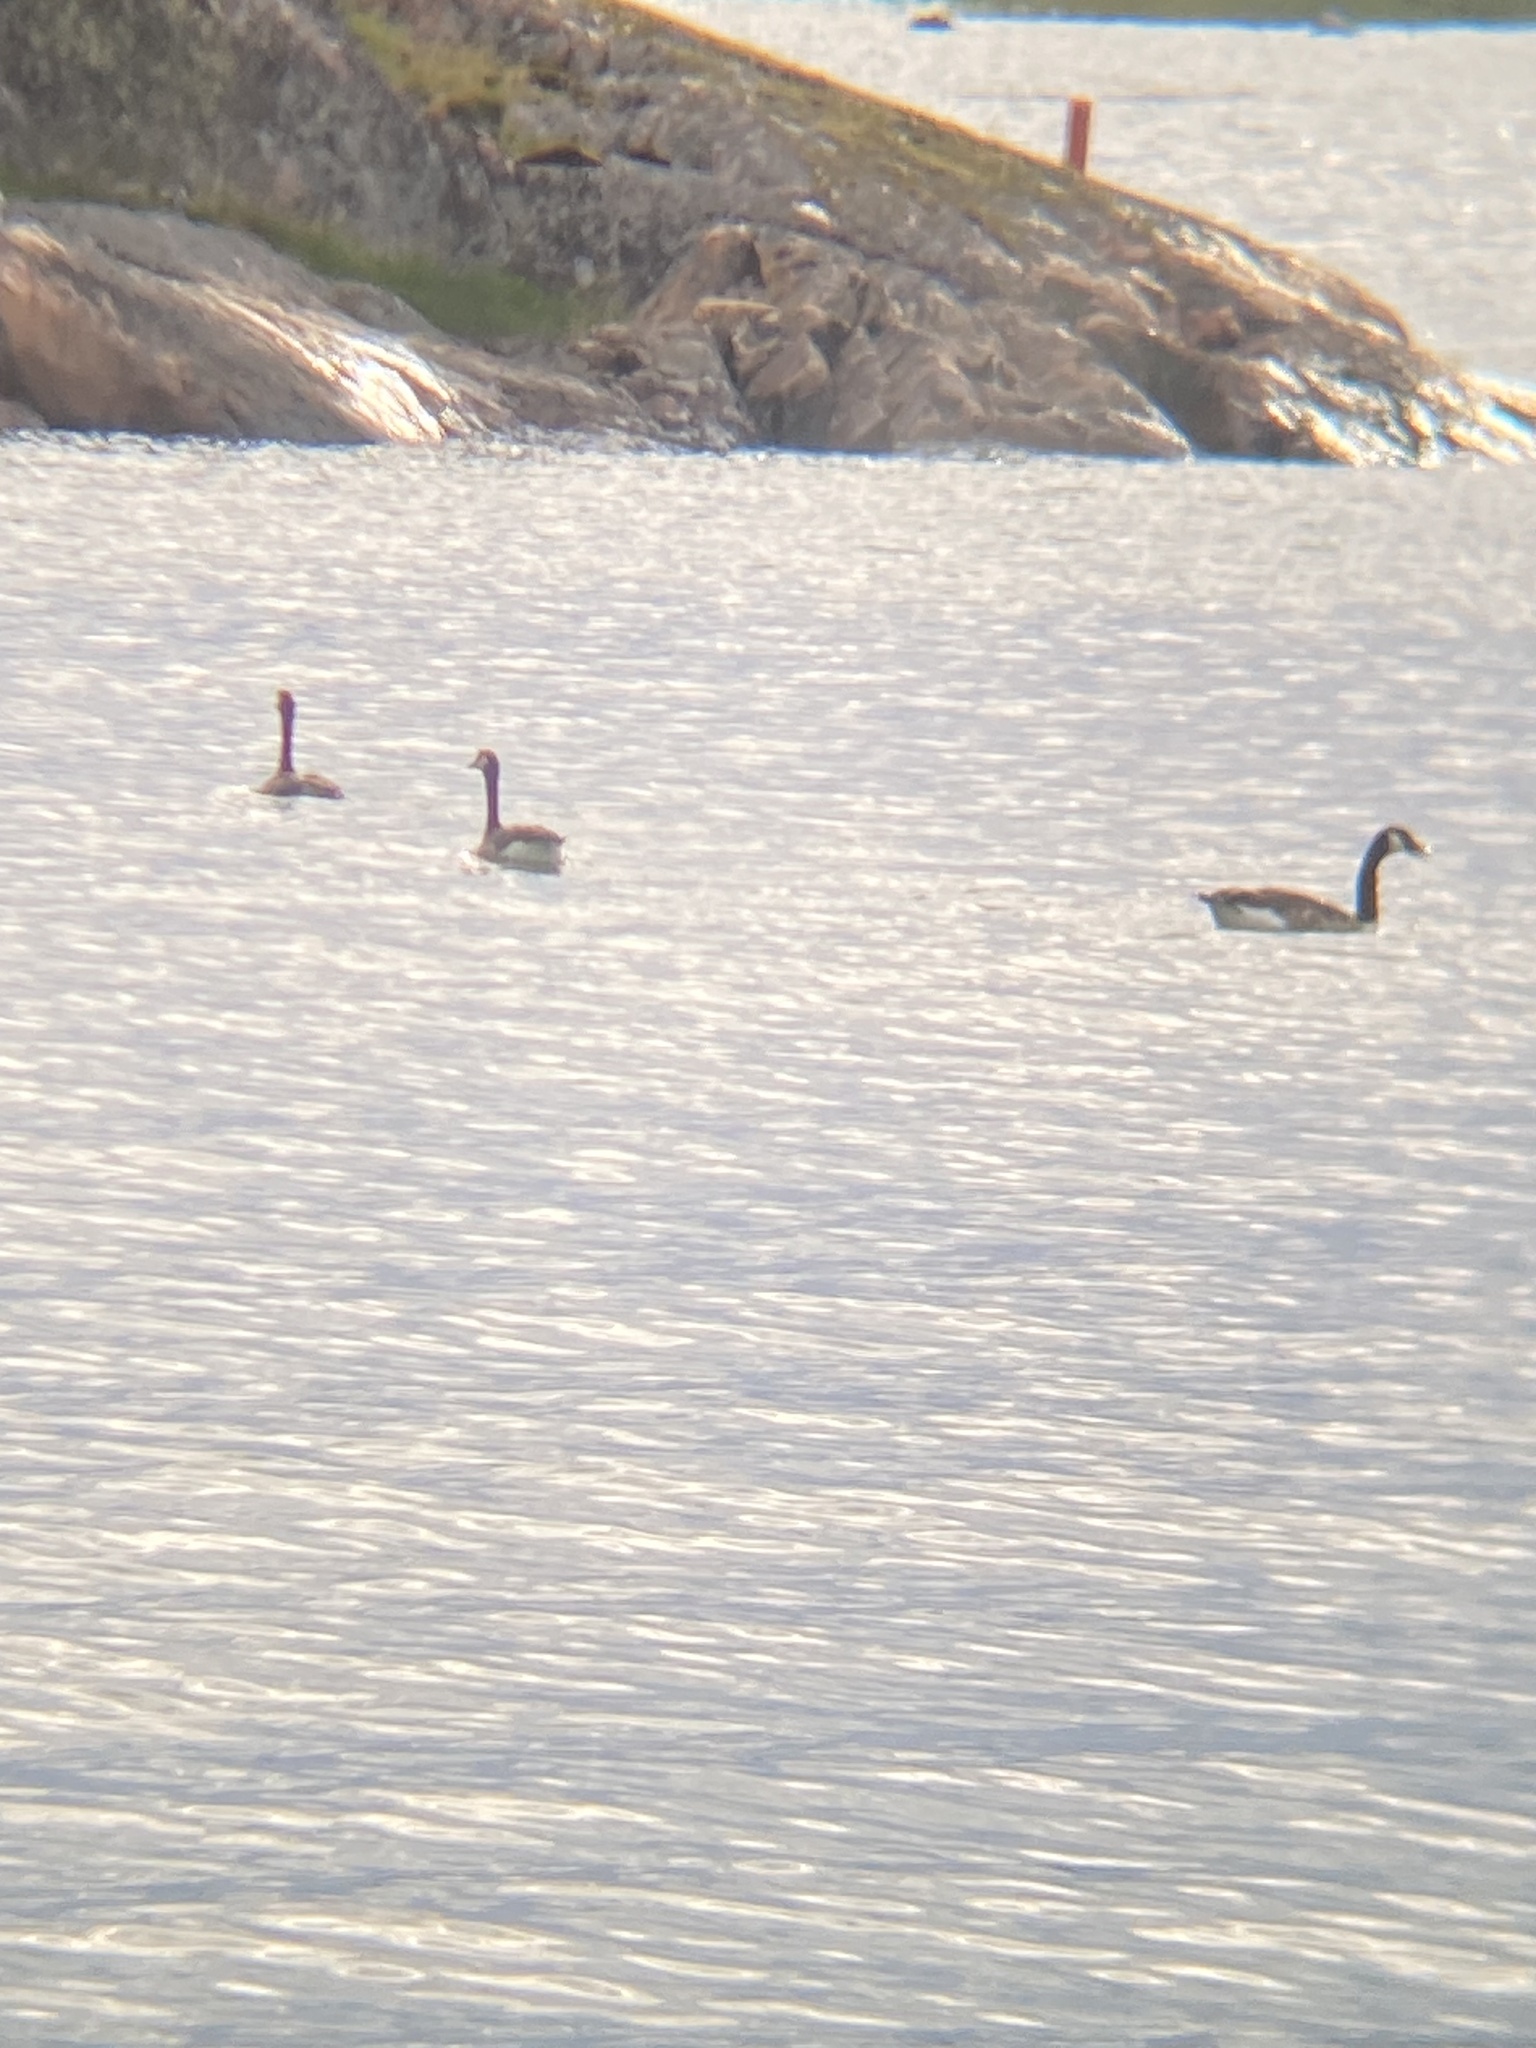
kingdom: Animalia
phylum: Chordata
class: Aves
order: Anseriformes
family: Anatidae
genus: Branta
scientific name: Branta canadensis
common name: Canada goose
